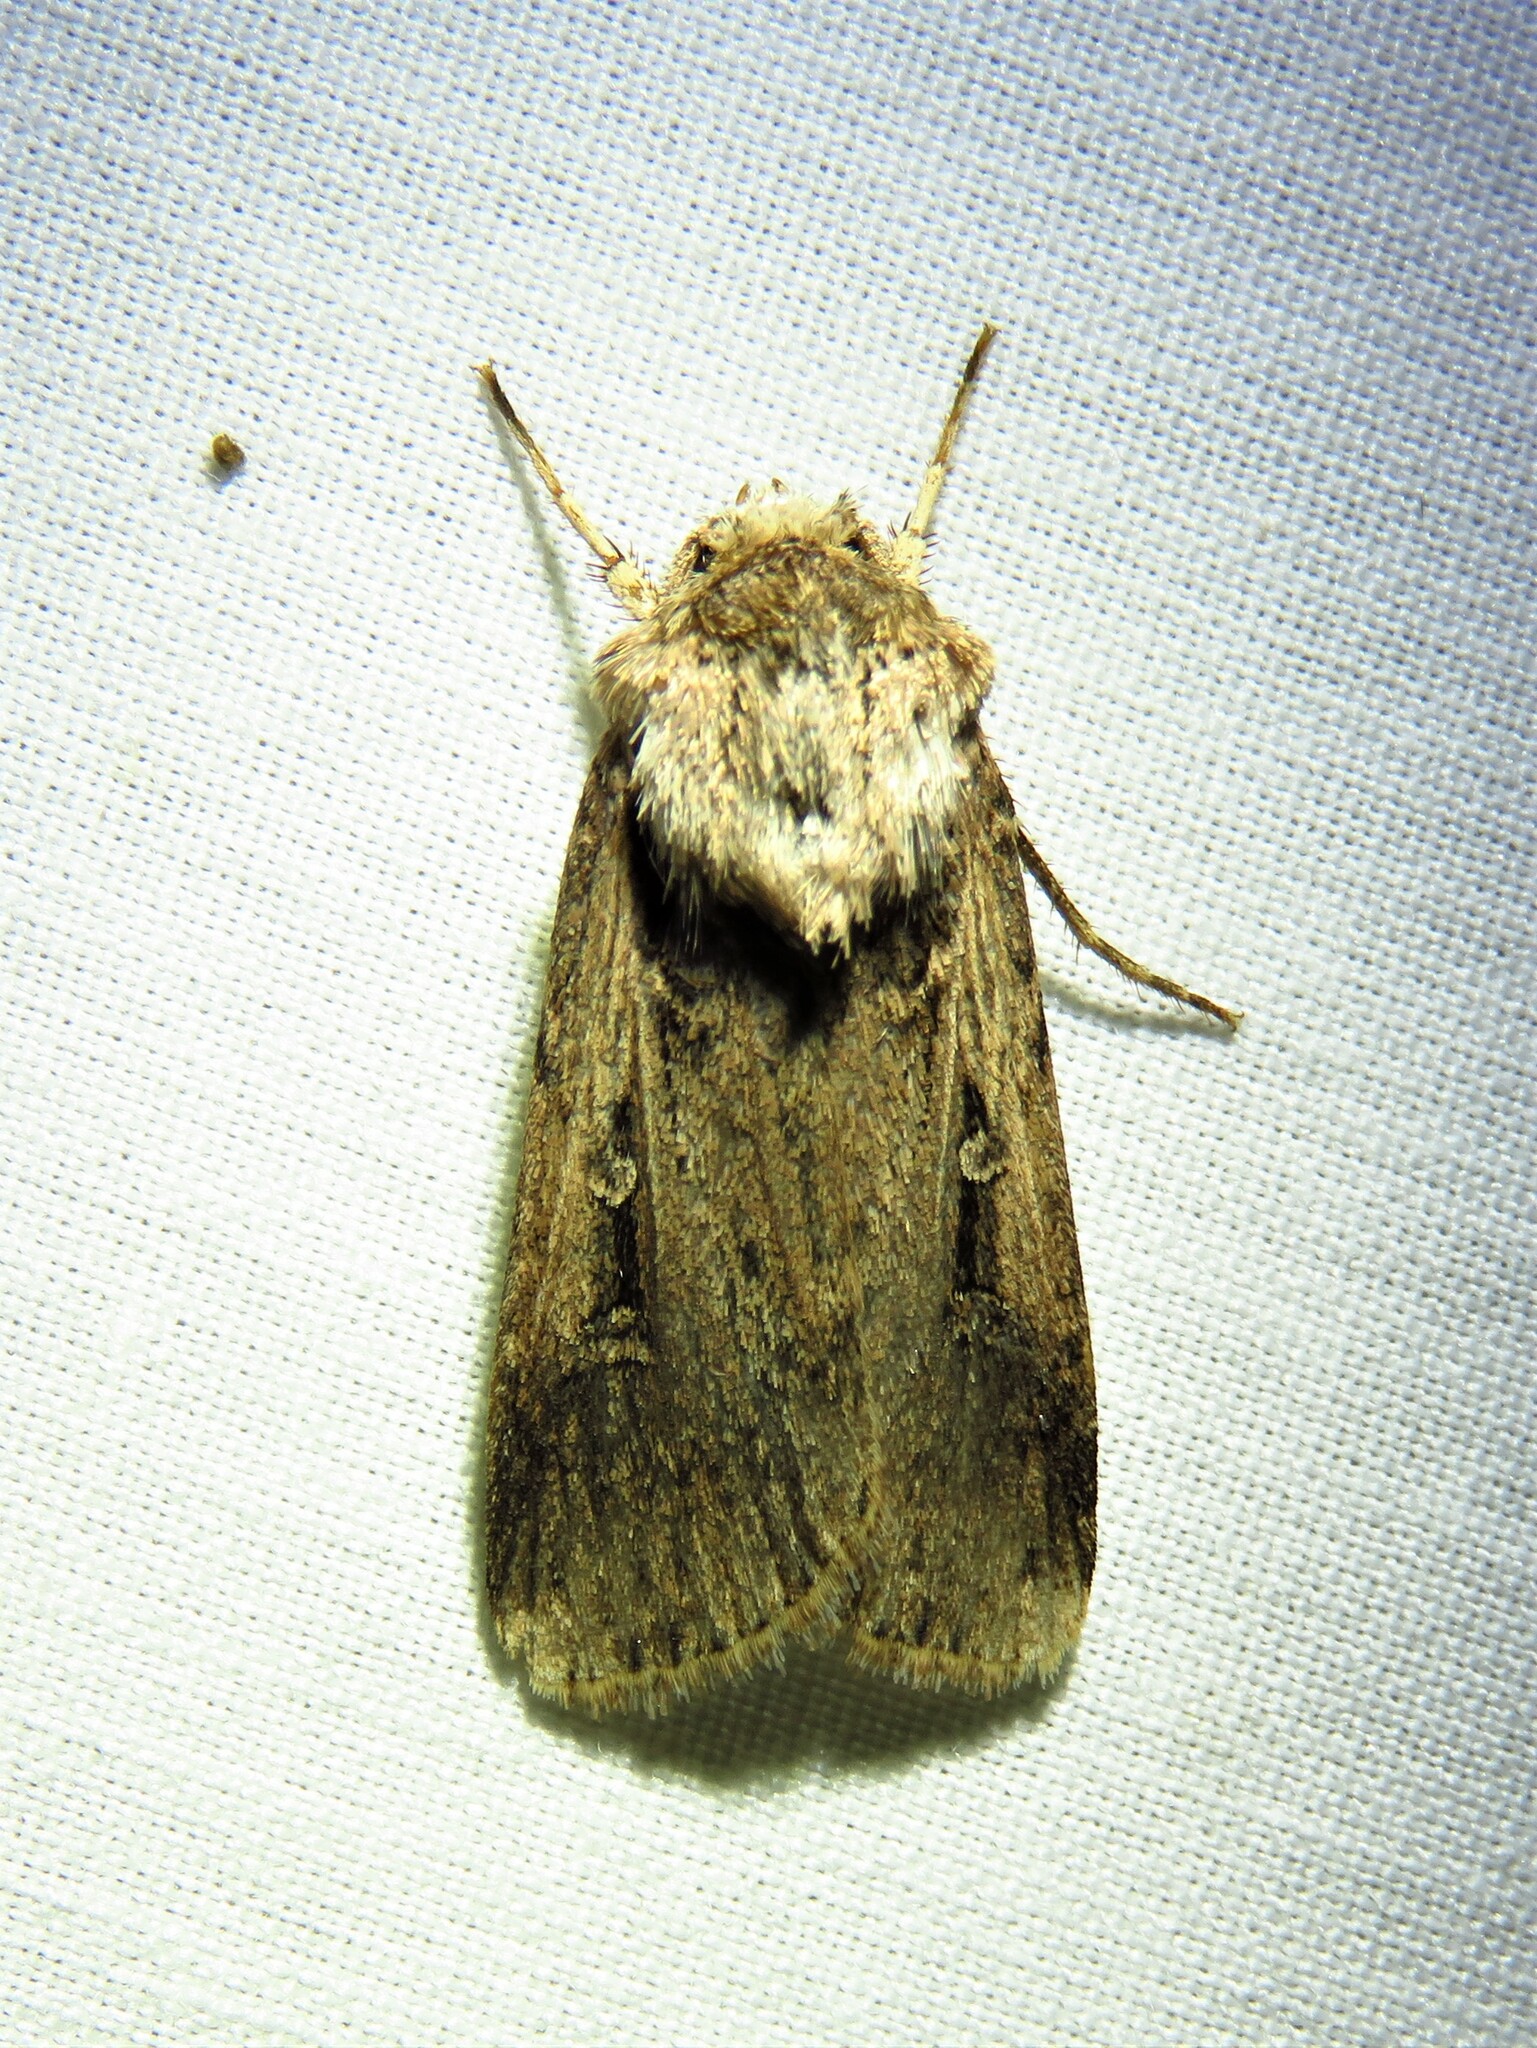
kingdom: Animalia
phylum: Arthropoda
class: Insecta
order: Lepidoptera
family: Noctuidae
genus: Feltia
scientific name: Feltia subterranea
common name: Granulate cutworm
